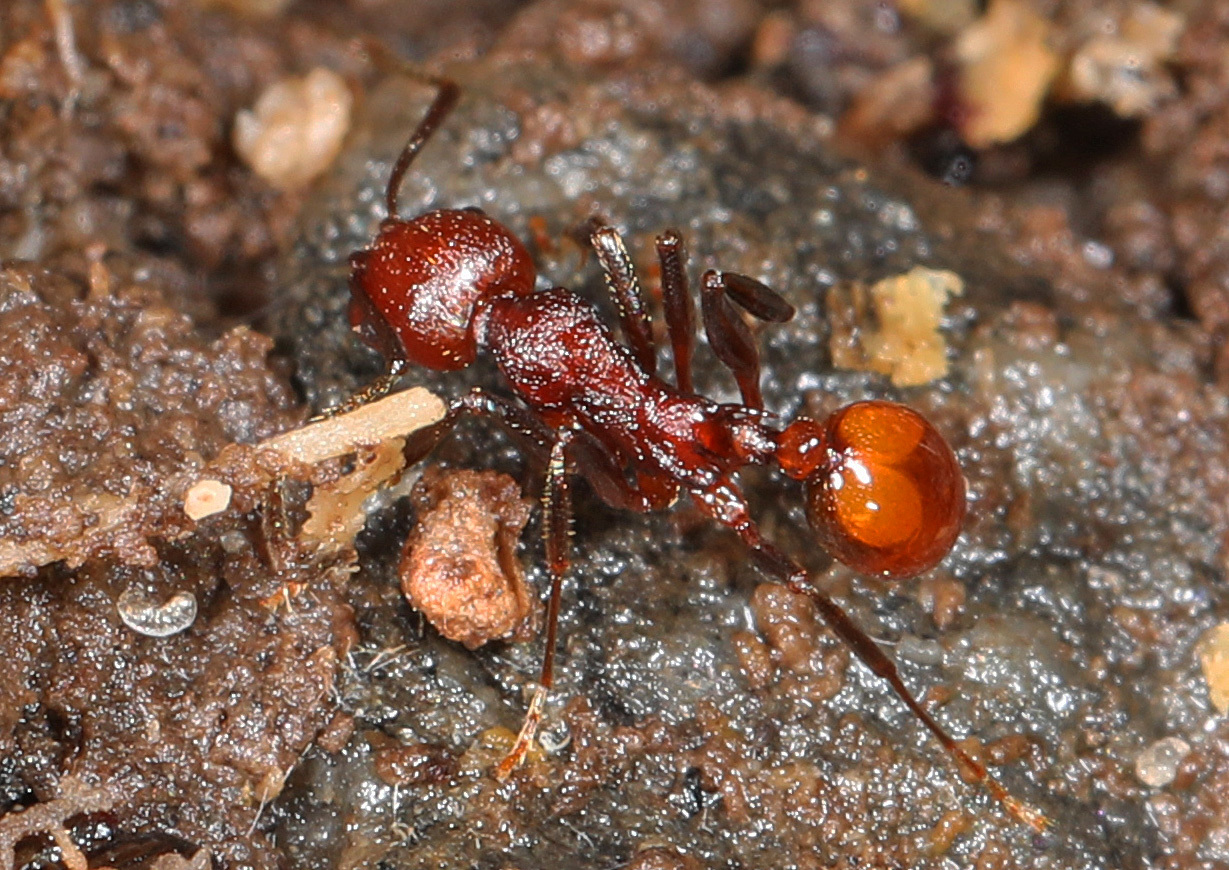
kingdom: Animalia
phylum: Arthropoda
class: Insecta
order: Hymenoptera
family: Formicidae
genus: Aphaenogaster
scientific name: Aphaenogaster tennesseensis
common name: Tennessee thread-waisted ant
